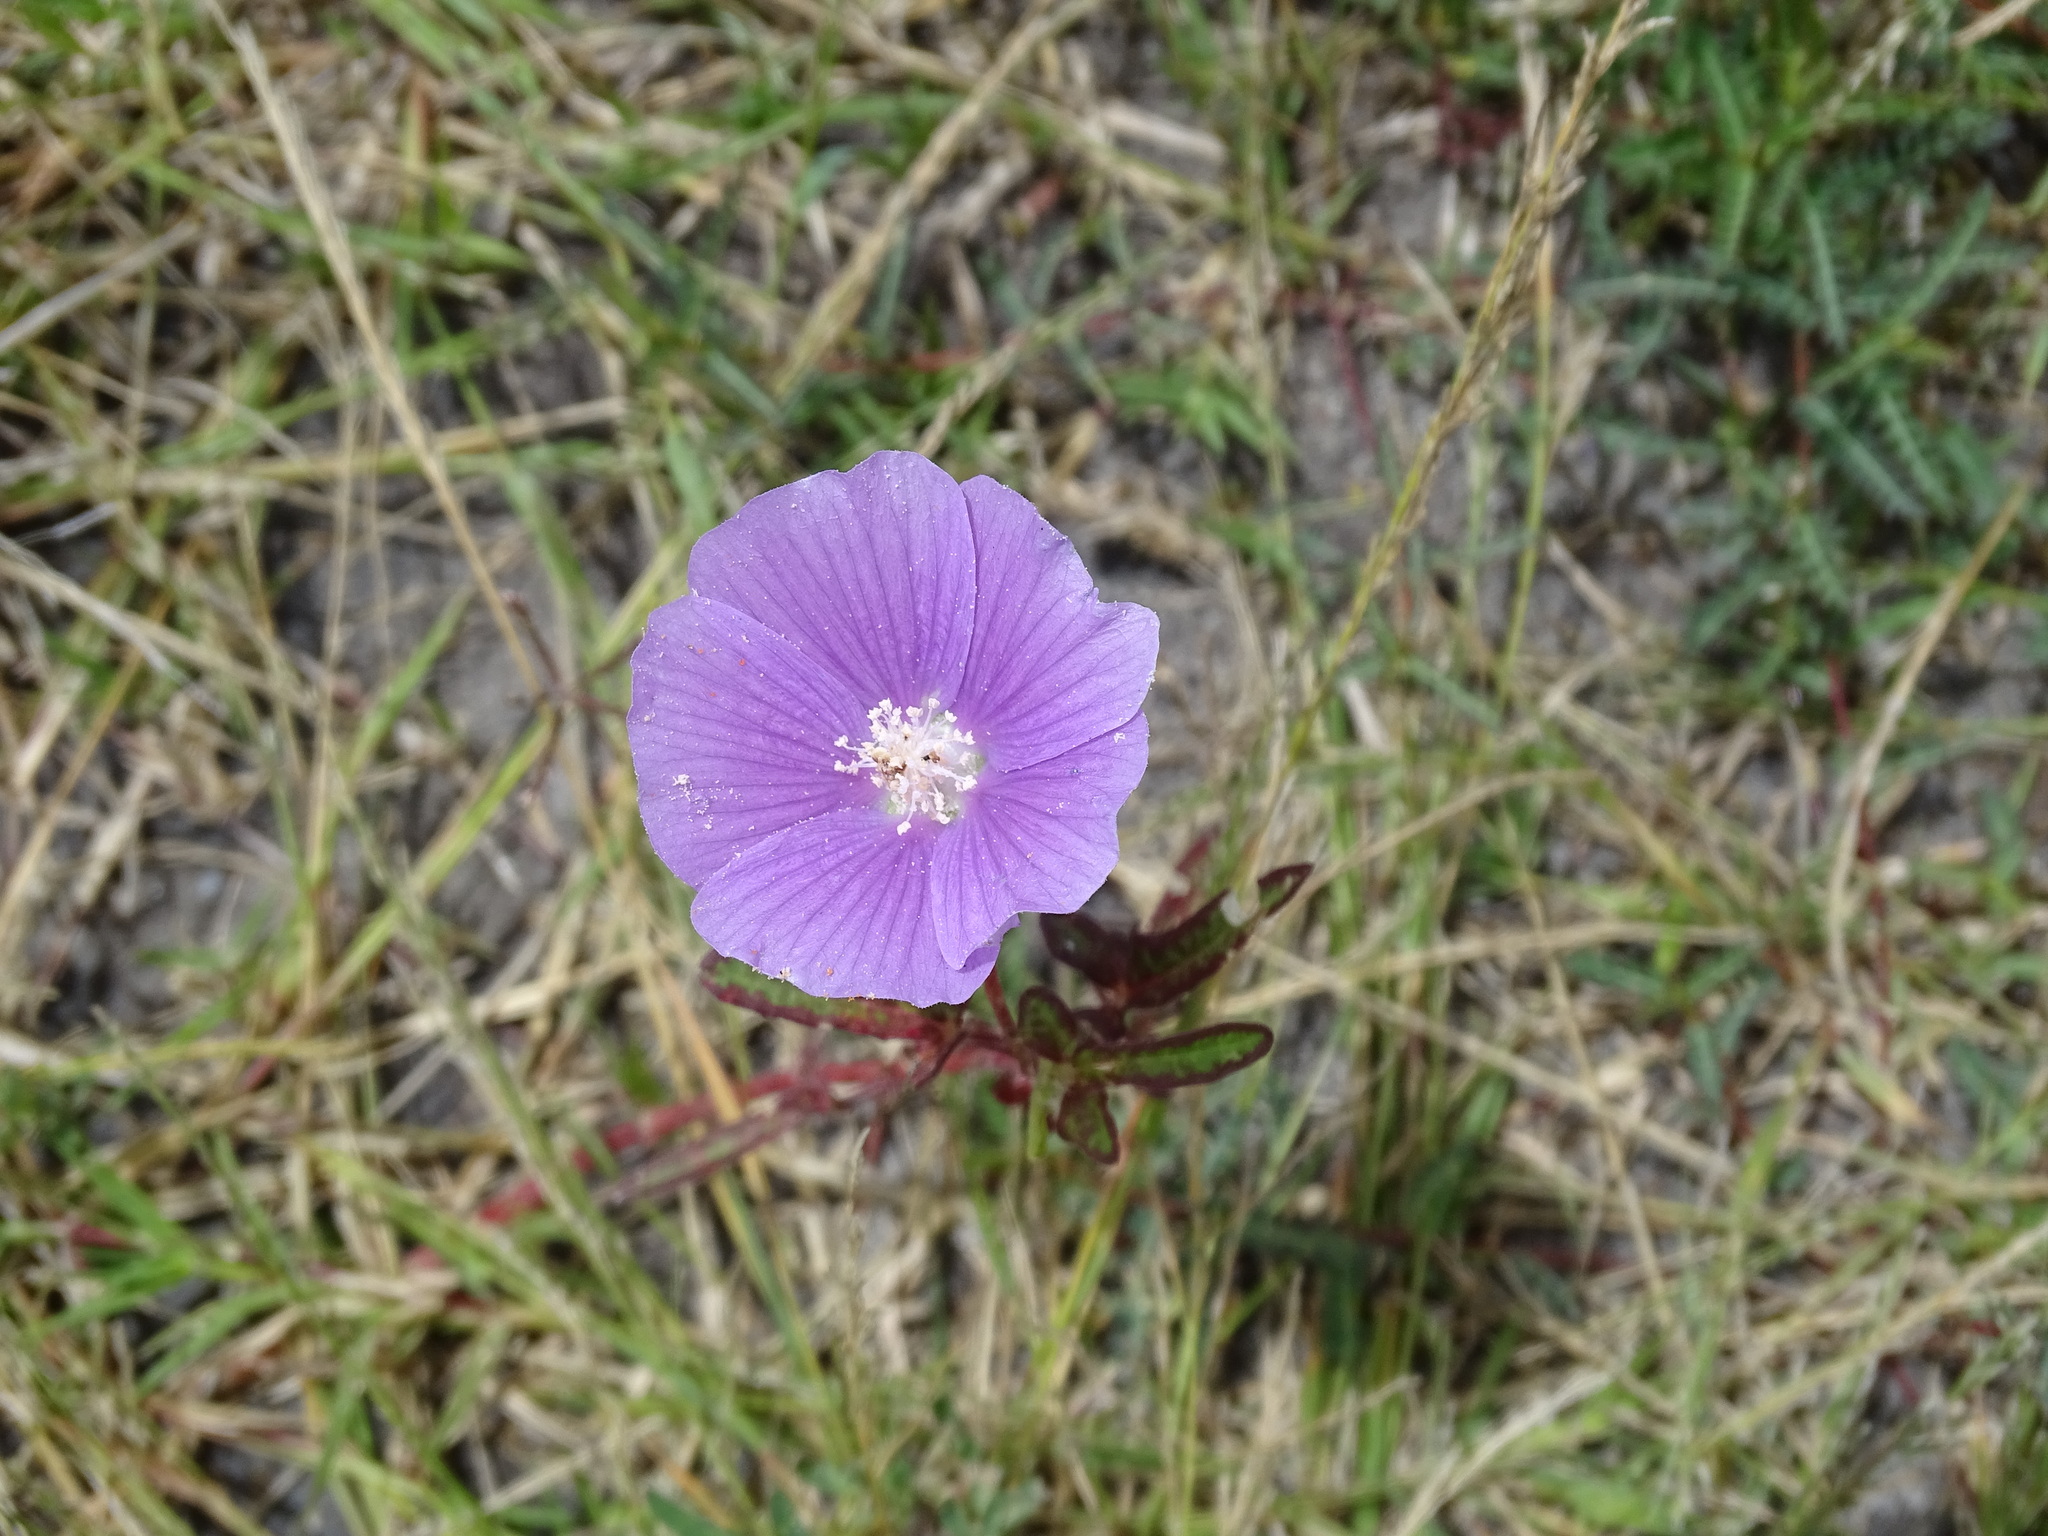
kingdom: Plantae
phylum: Tracheophyta
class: Magnoliopsida
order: Malvales
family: Malvaceae
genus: Anoda
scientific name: Anoda cristata
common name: Spurred anoda
